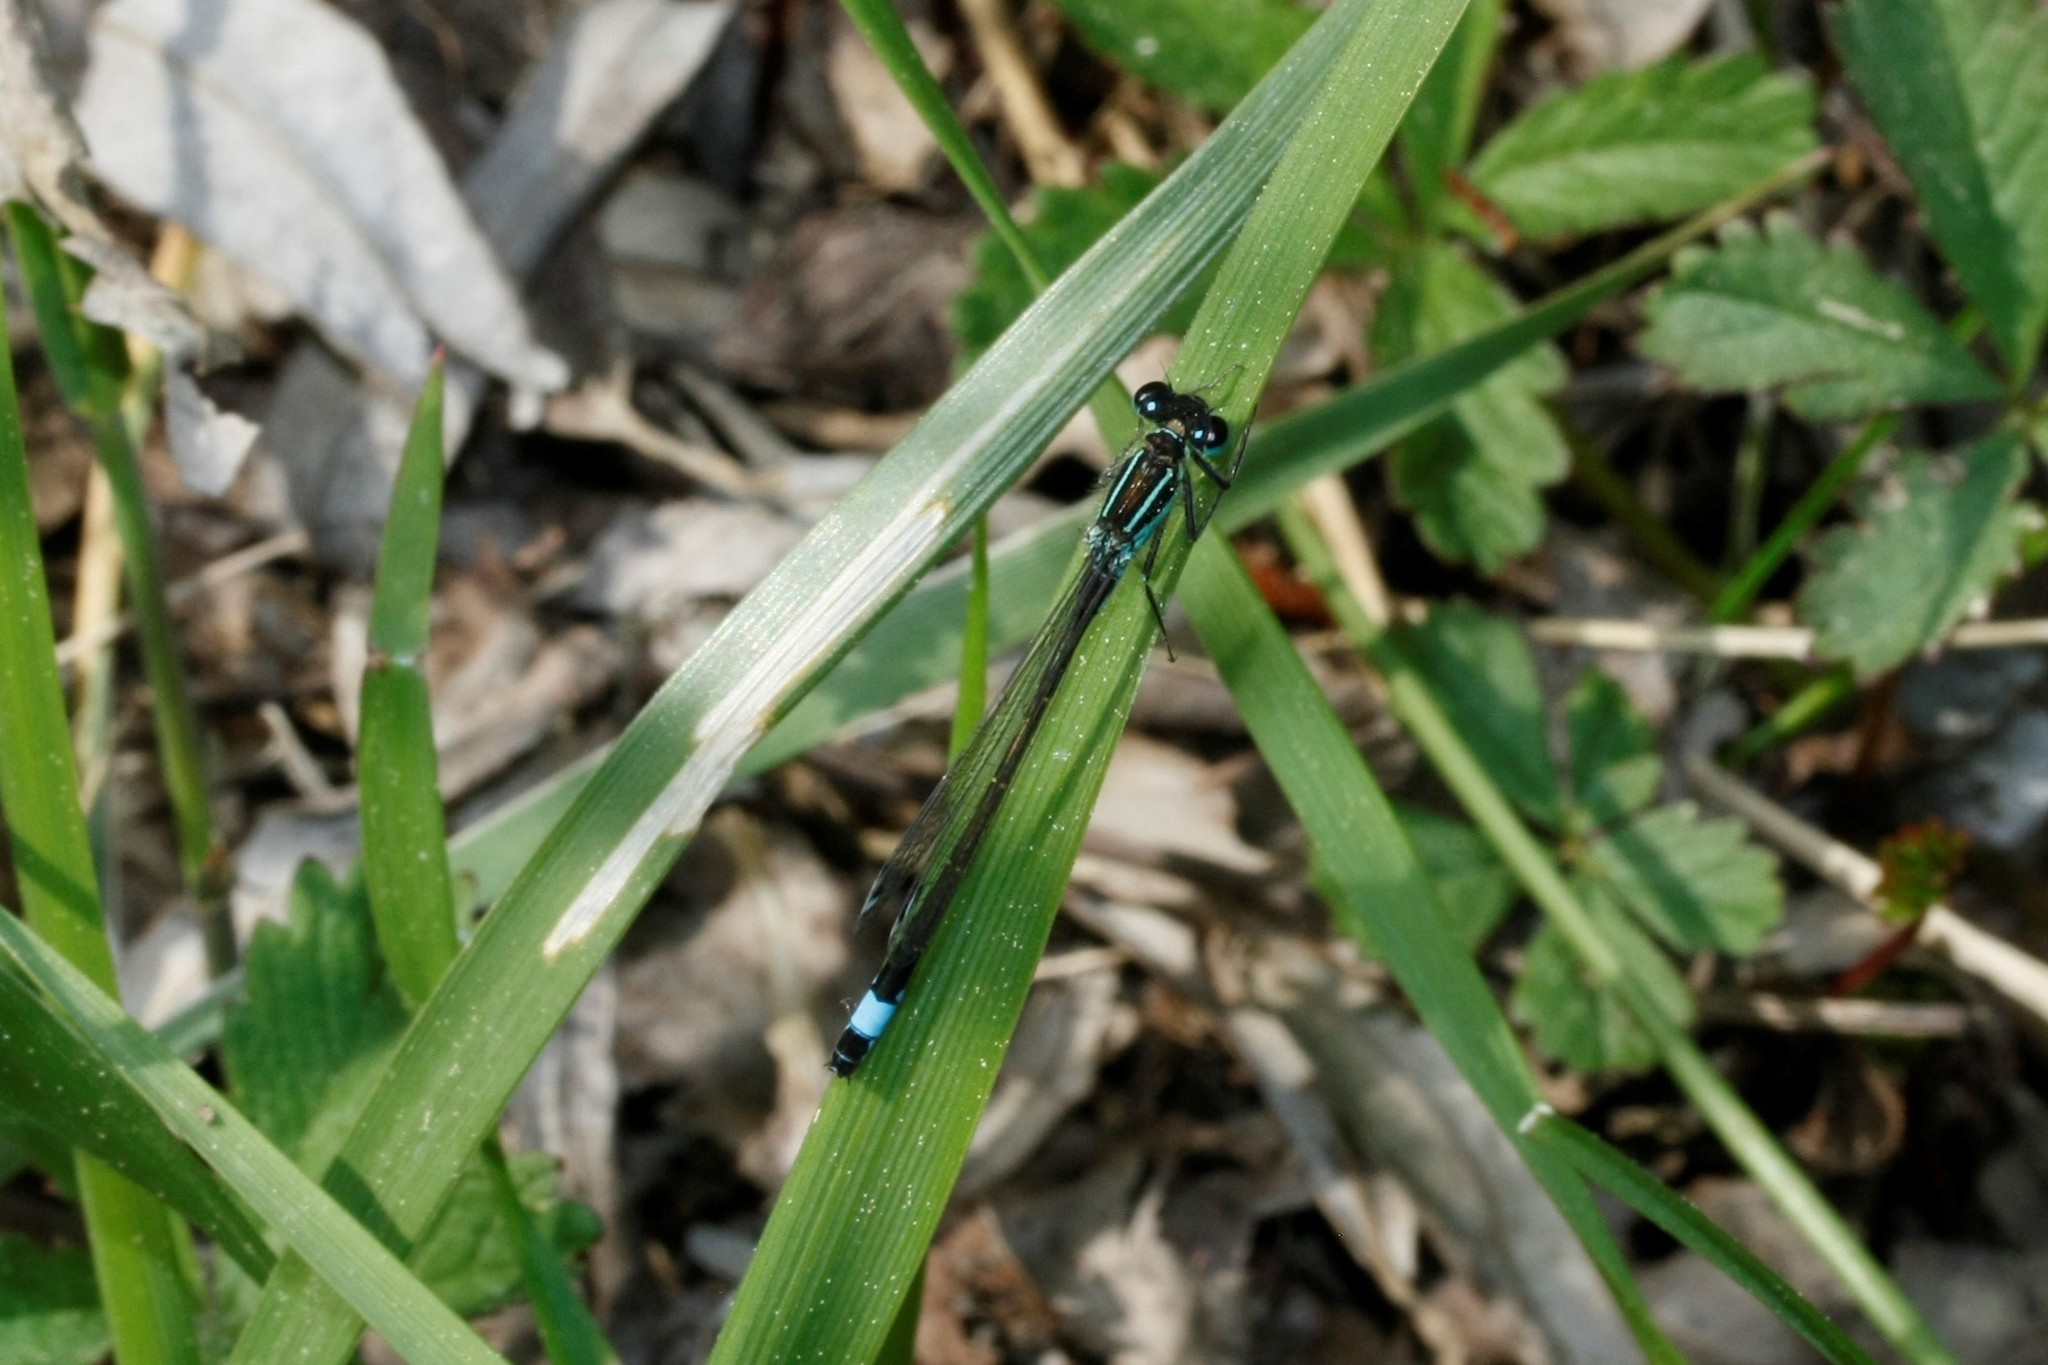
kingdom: Animalia
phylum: Arthropoda
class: Insecta
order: Odonata
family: Coenagrionidae
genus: Ischnura
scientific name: Ischnura elegans
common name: Blue-tailed damselfly
